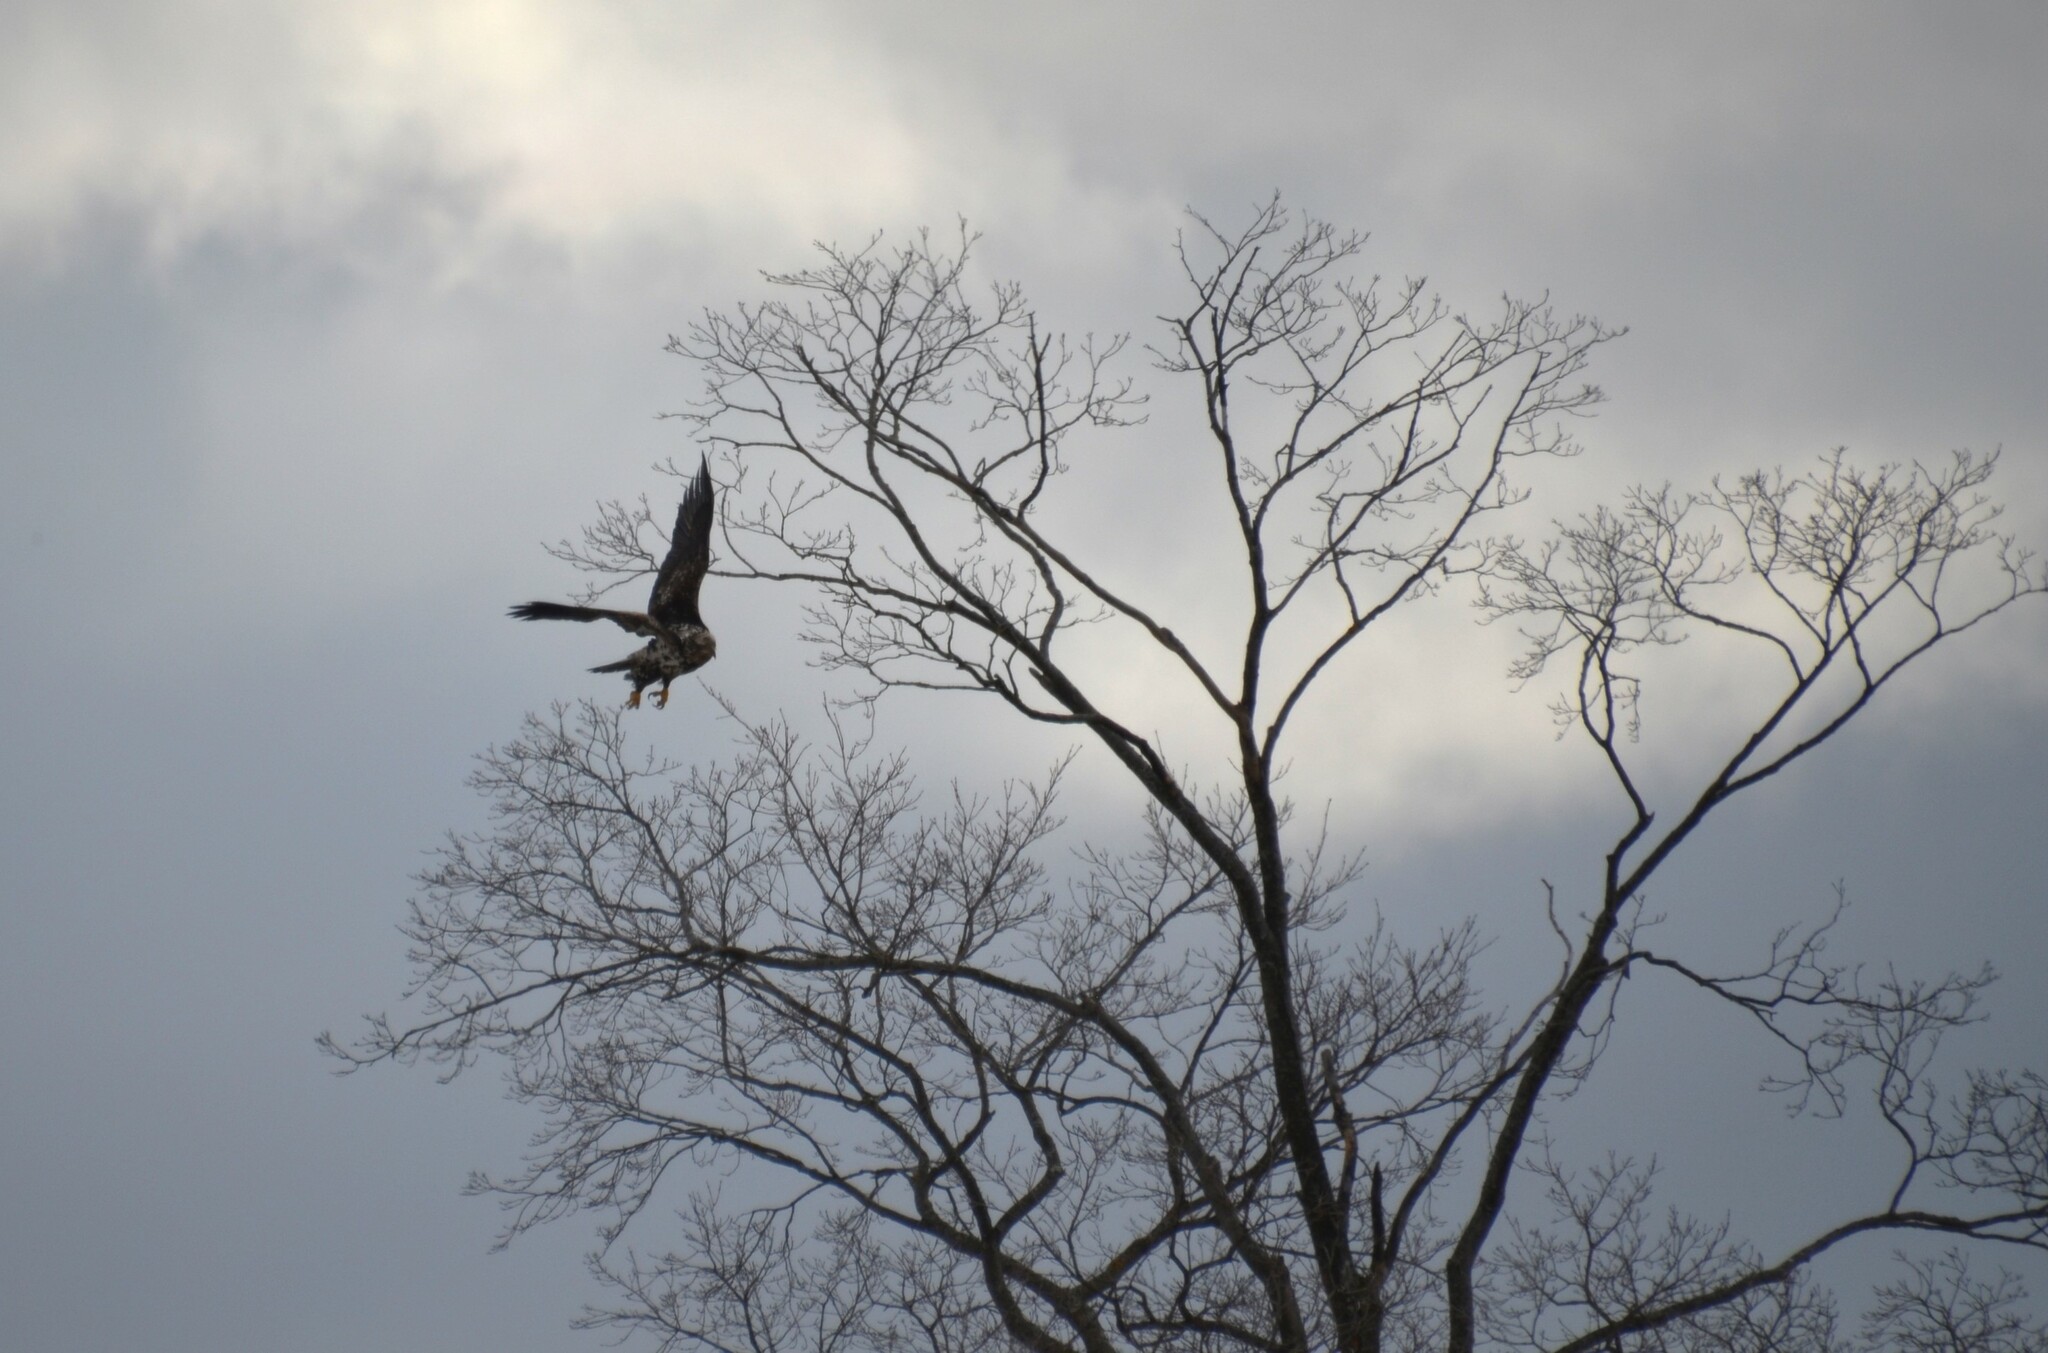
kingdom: Animalia
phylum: Chordata
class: Aves
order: Accipitriformes
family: Accipitridae
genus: Haliaeetus
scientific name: Haliaeetus leucocephalus
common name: Bald eagle
